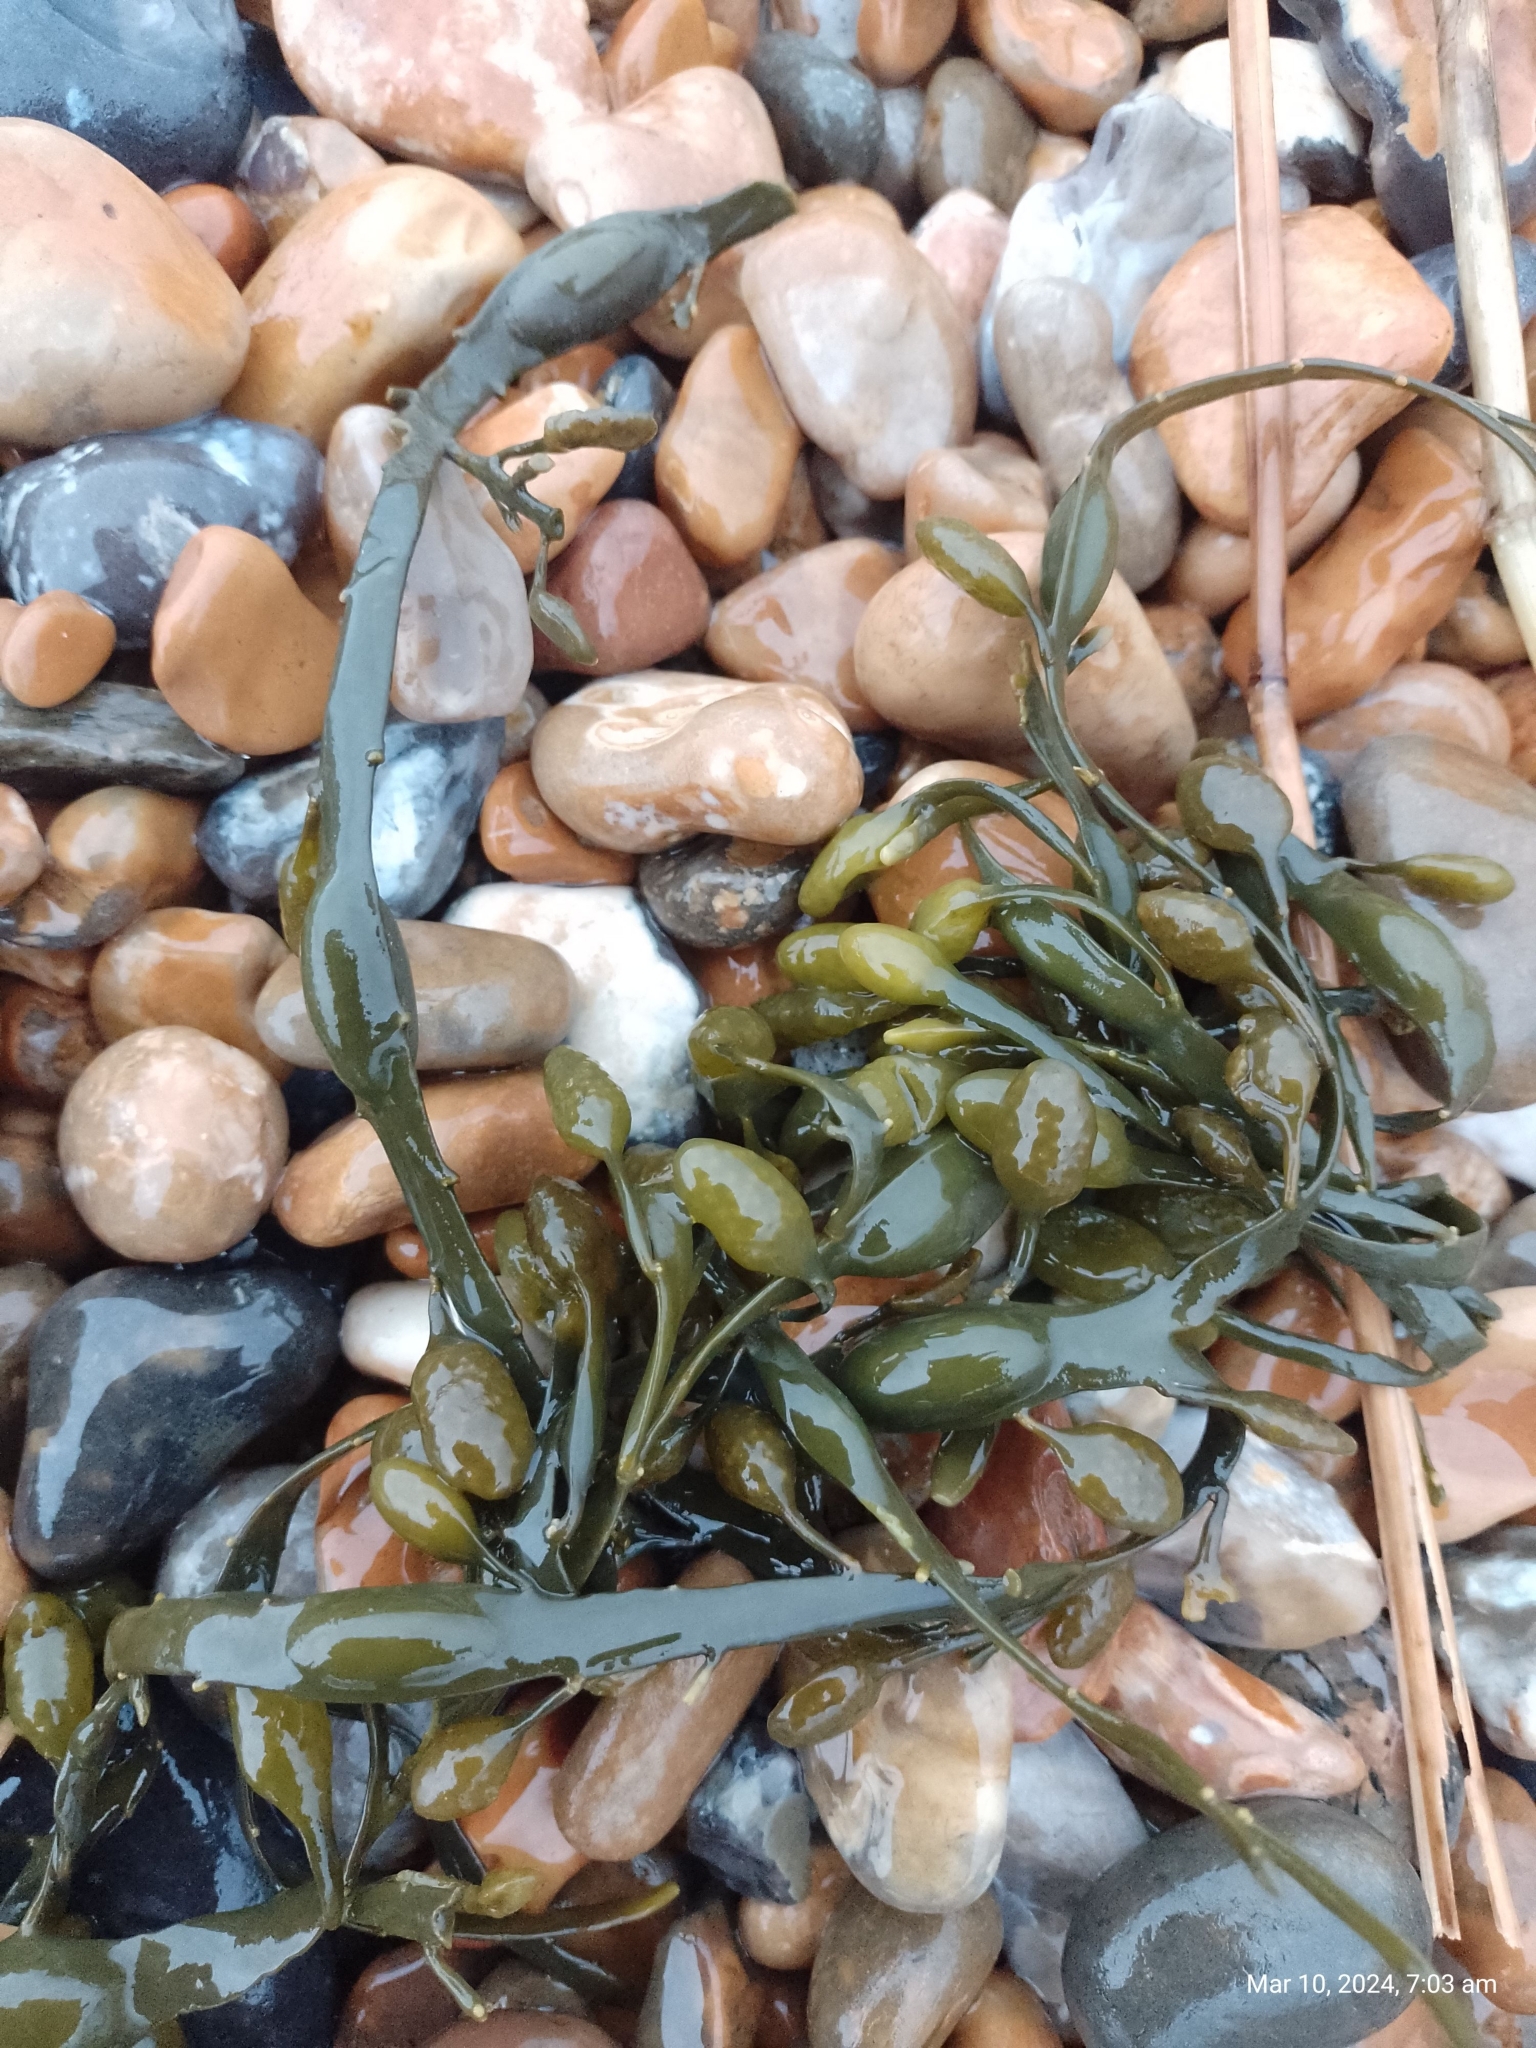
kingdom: Chromista
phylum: Ochrophyta
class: Phaeophyceae
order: Fucales
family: Fucaceae
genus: Ascophyllum
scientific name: Ascophyllum nodosum
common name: Knotted wrack
